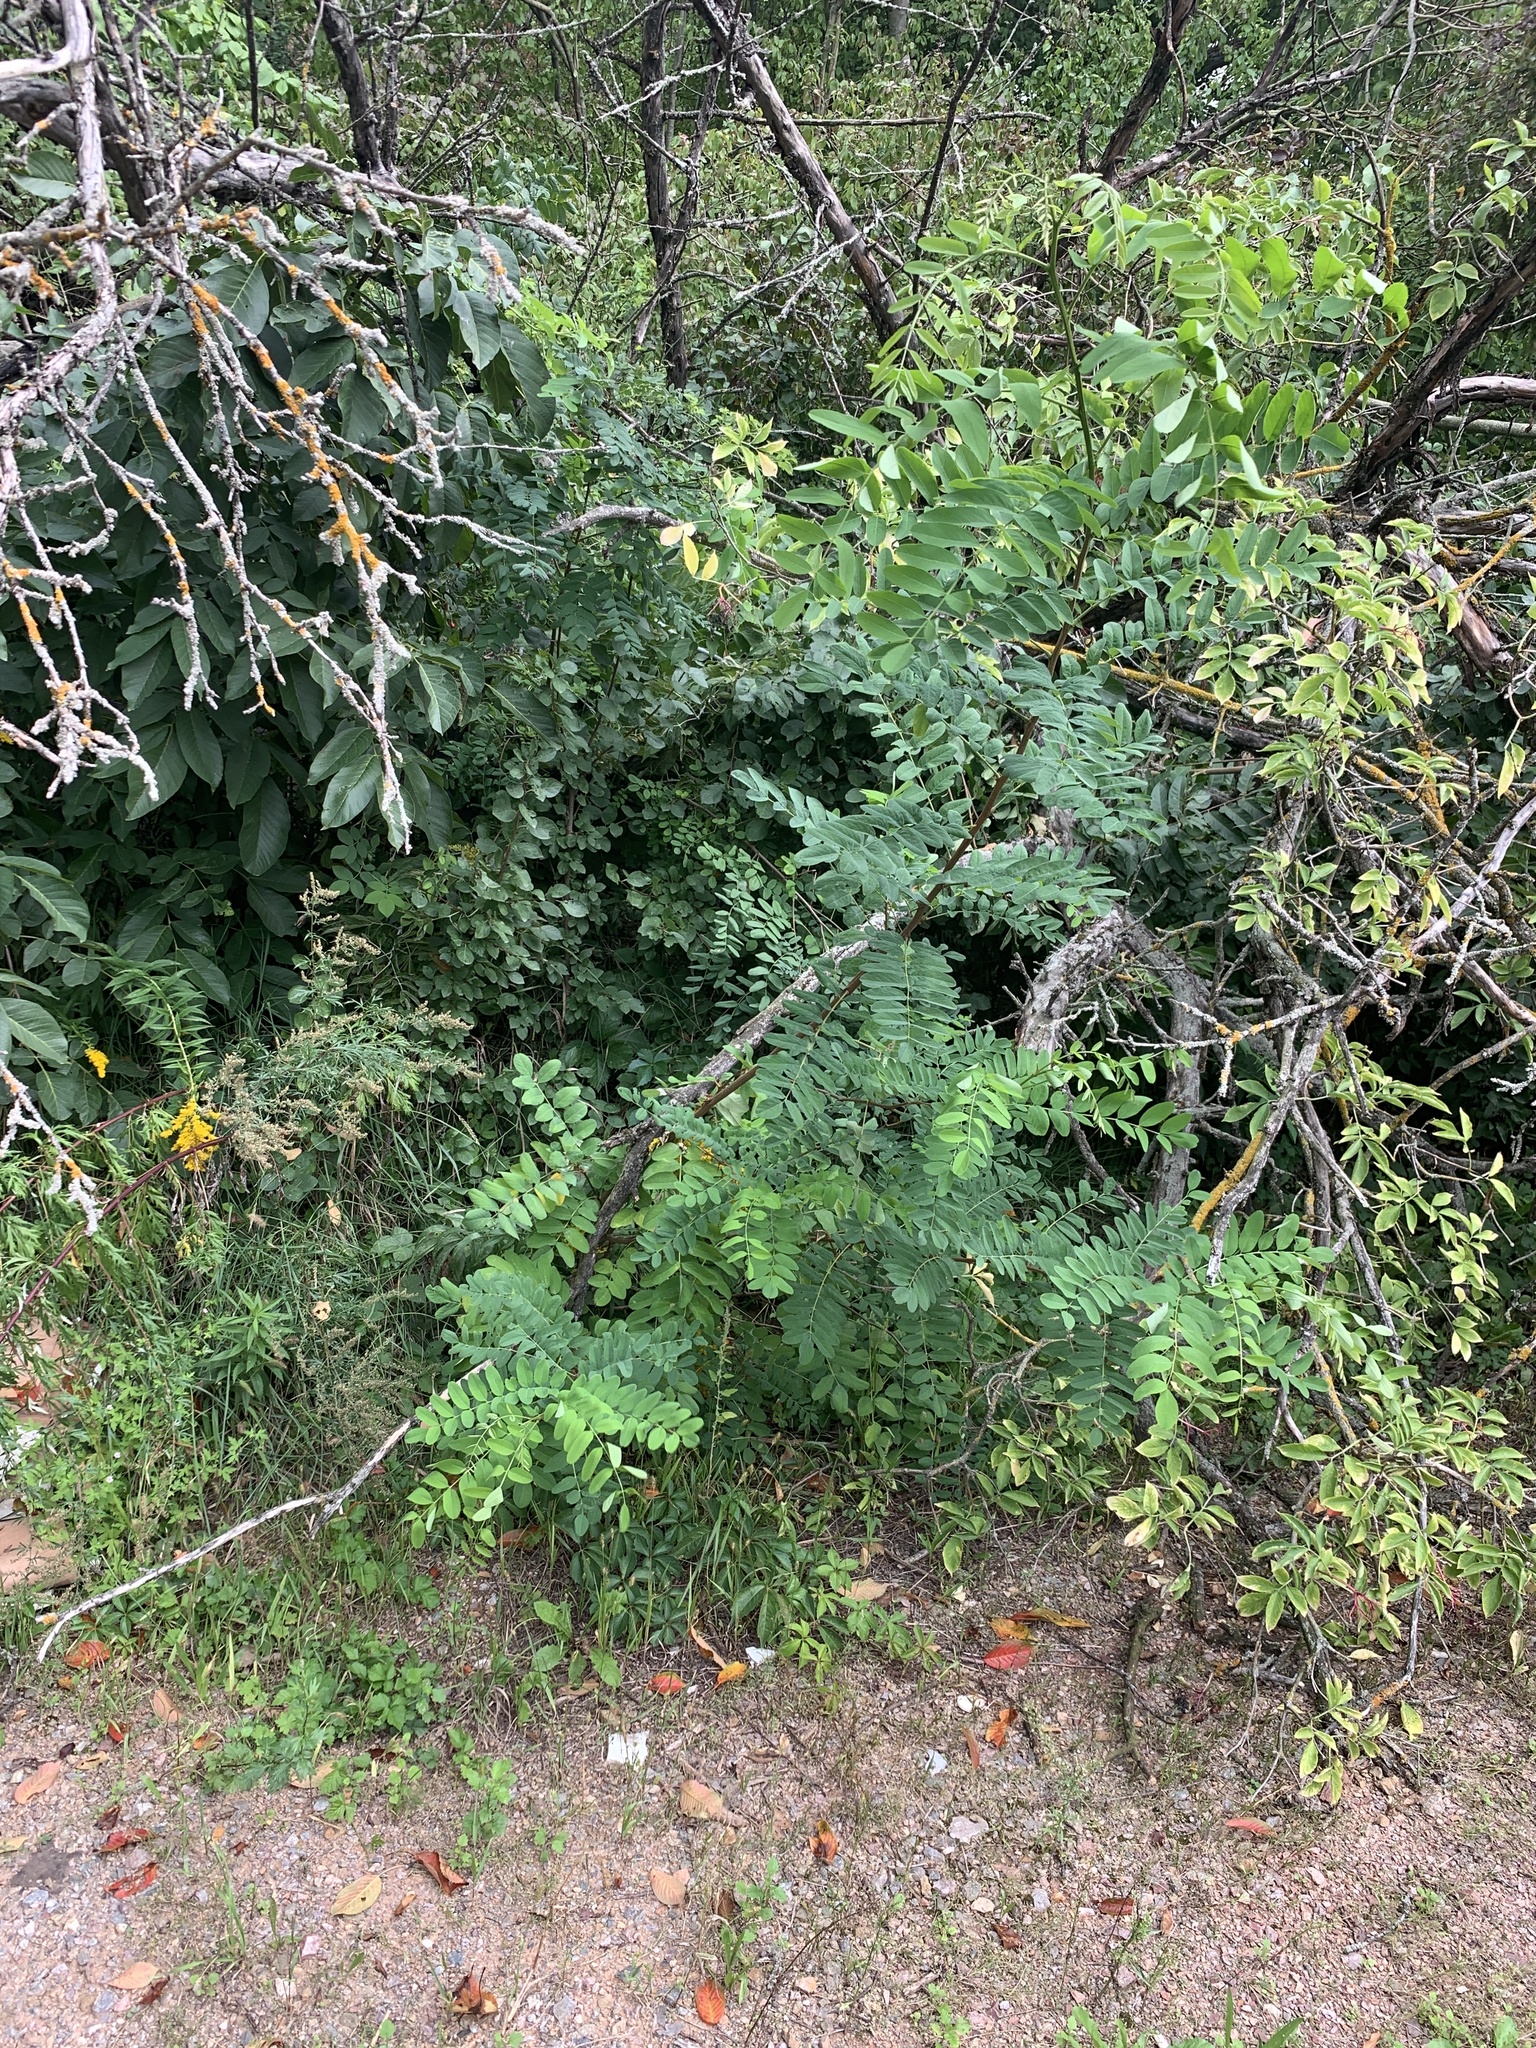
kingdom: Plantae
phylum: Tracheophyta
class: Magnoliopsida
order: Fabales
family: Fabaceae
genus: Robinia
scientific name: Robinia pseudoacacia
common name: Black locust
